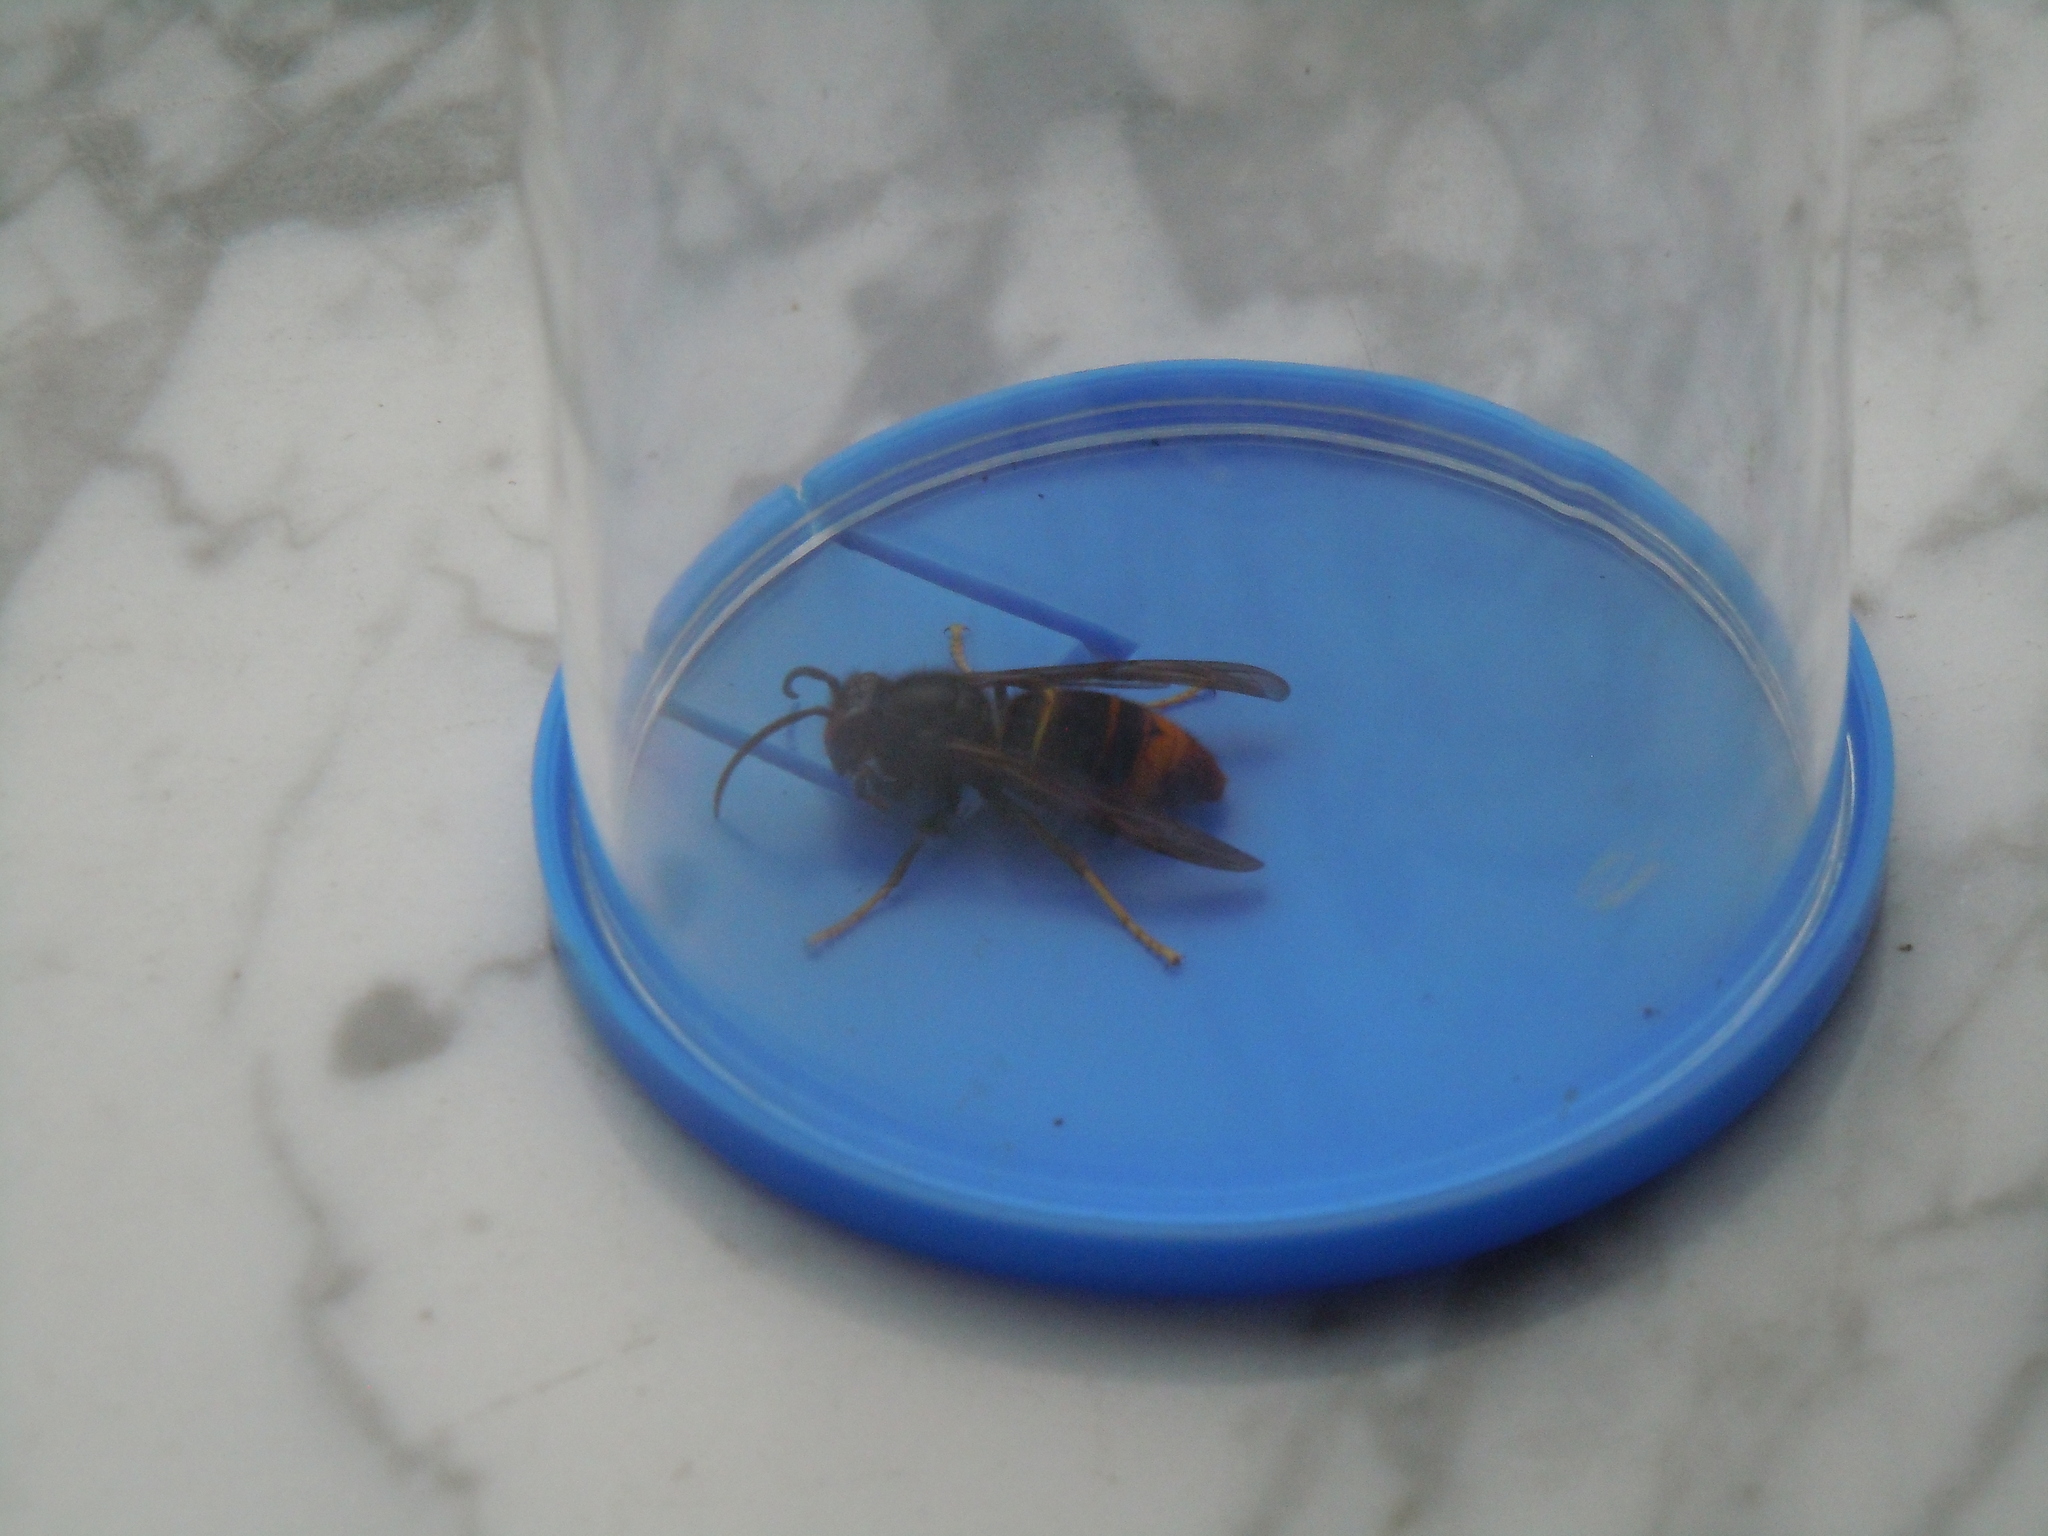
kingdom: Animalia
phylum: Arthropoda
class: Insecta
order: Hymenoptera
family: Vespidae
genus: Vespa
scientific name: Vespa velutina
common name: Asian hornet
